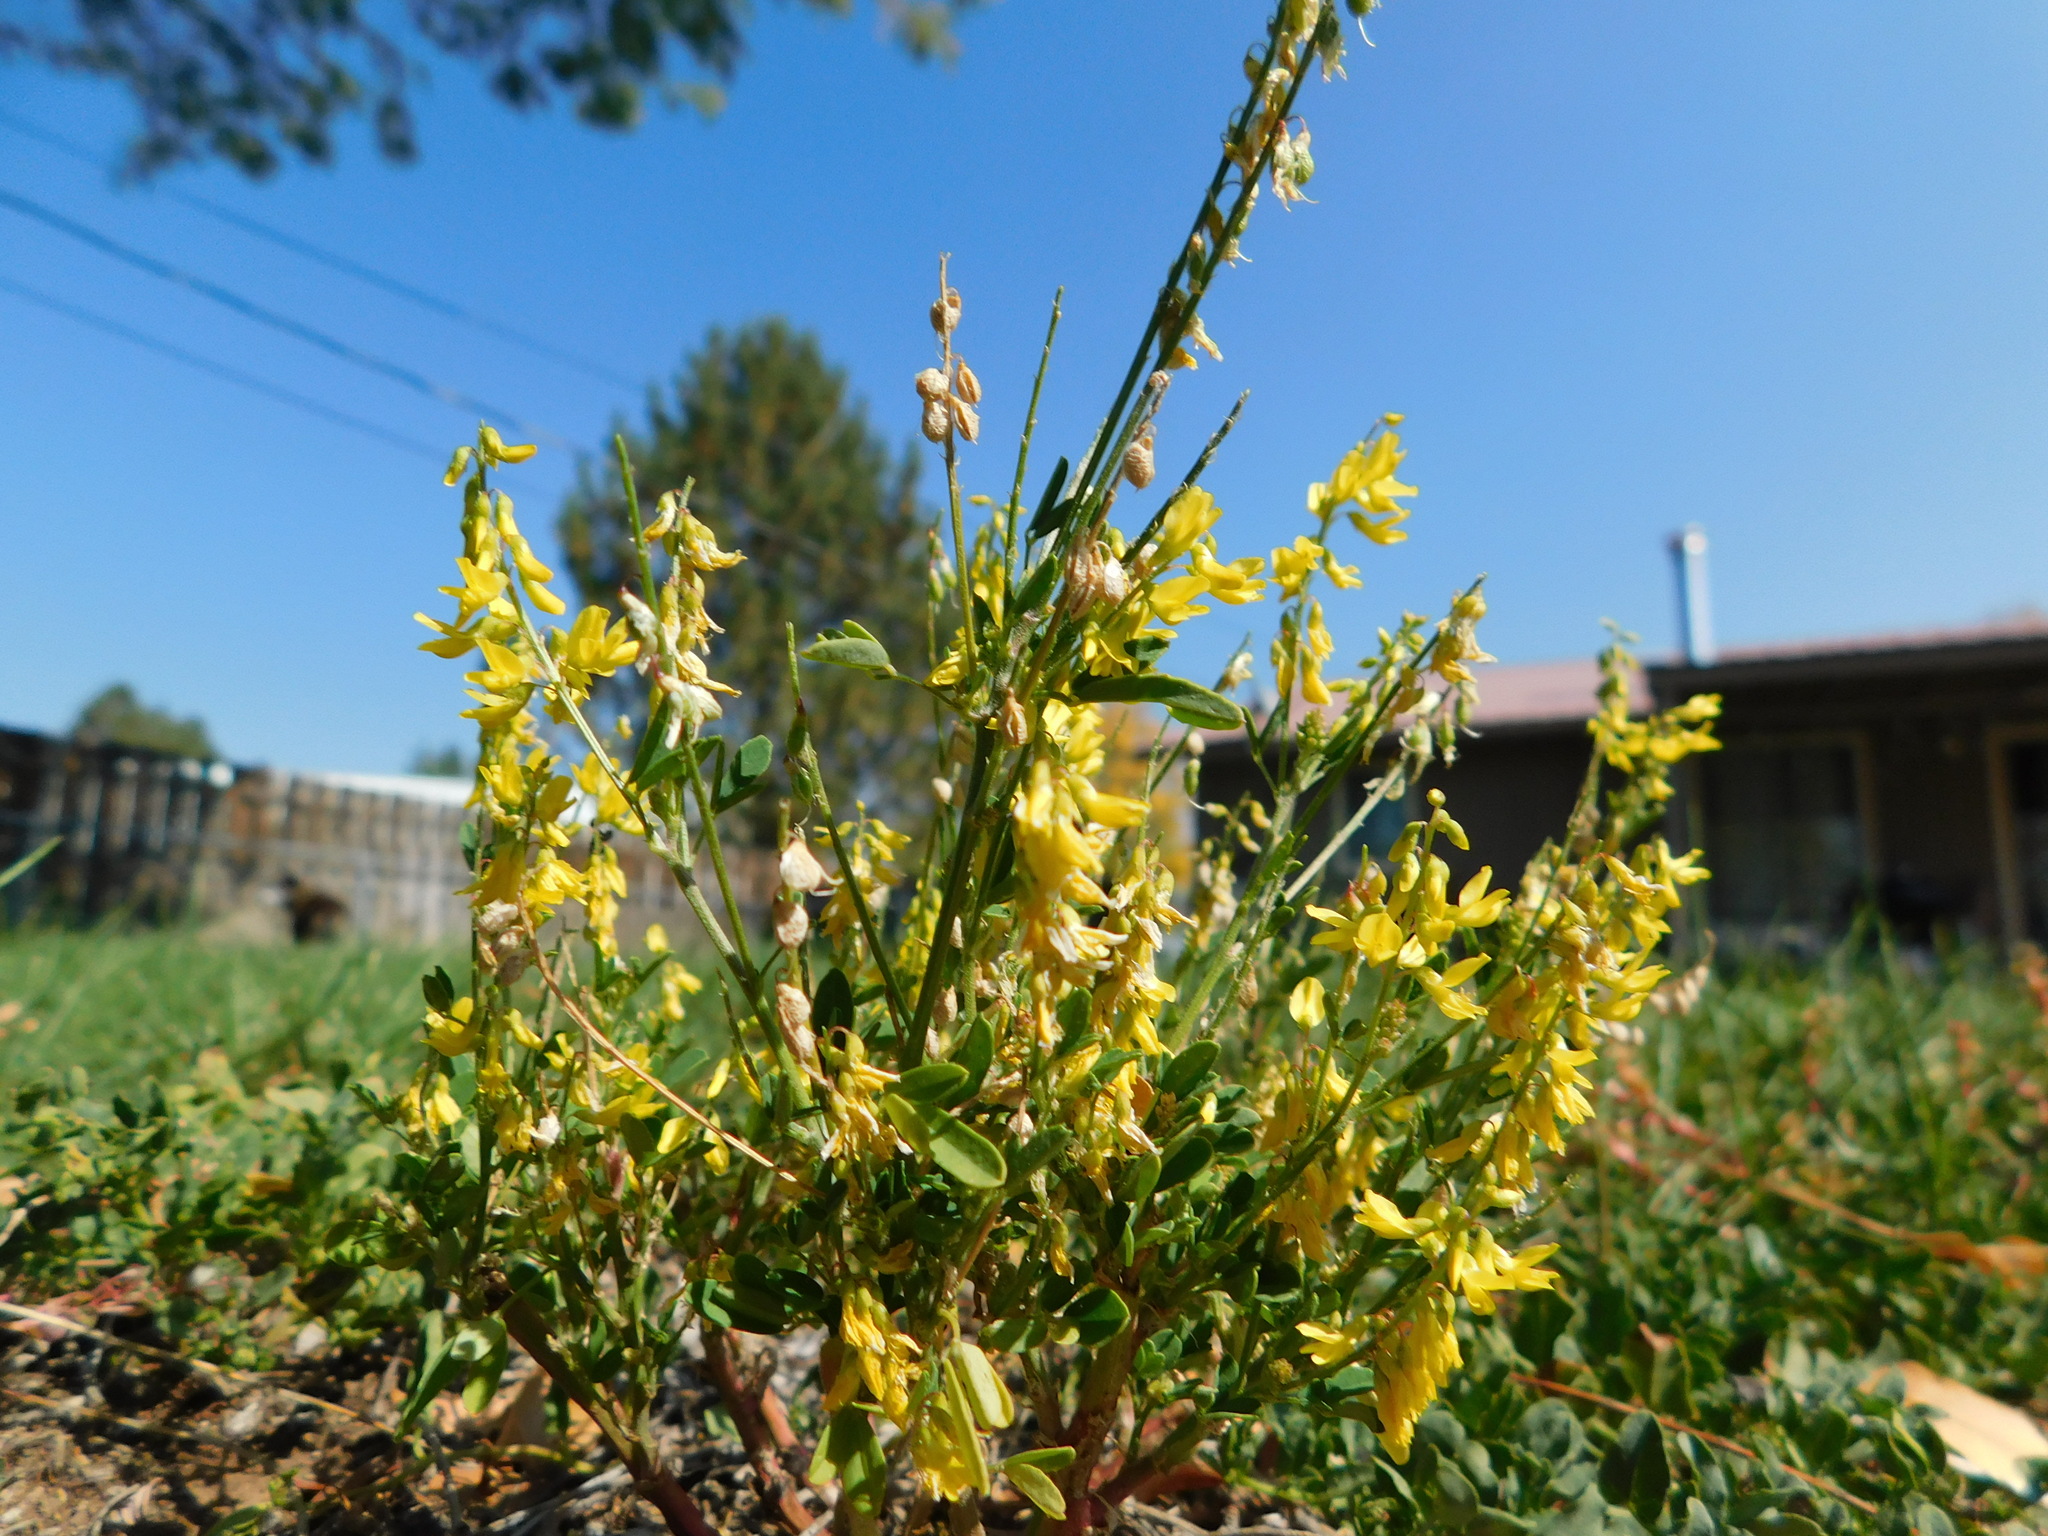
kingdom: Plantae
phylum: Tracheophyta
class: Magnoliopsida
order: Fabales
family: Fabaceae
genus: Melilotus
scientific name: Melilotus officinalis
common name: Sweetclover
